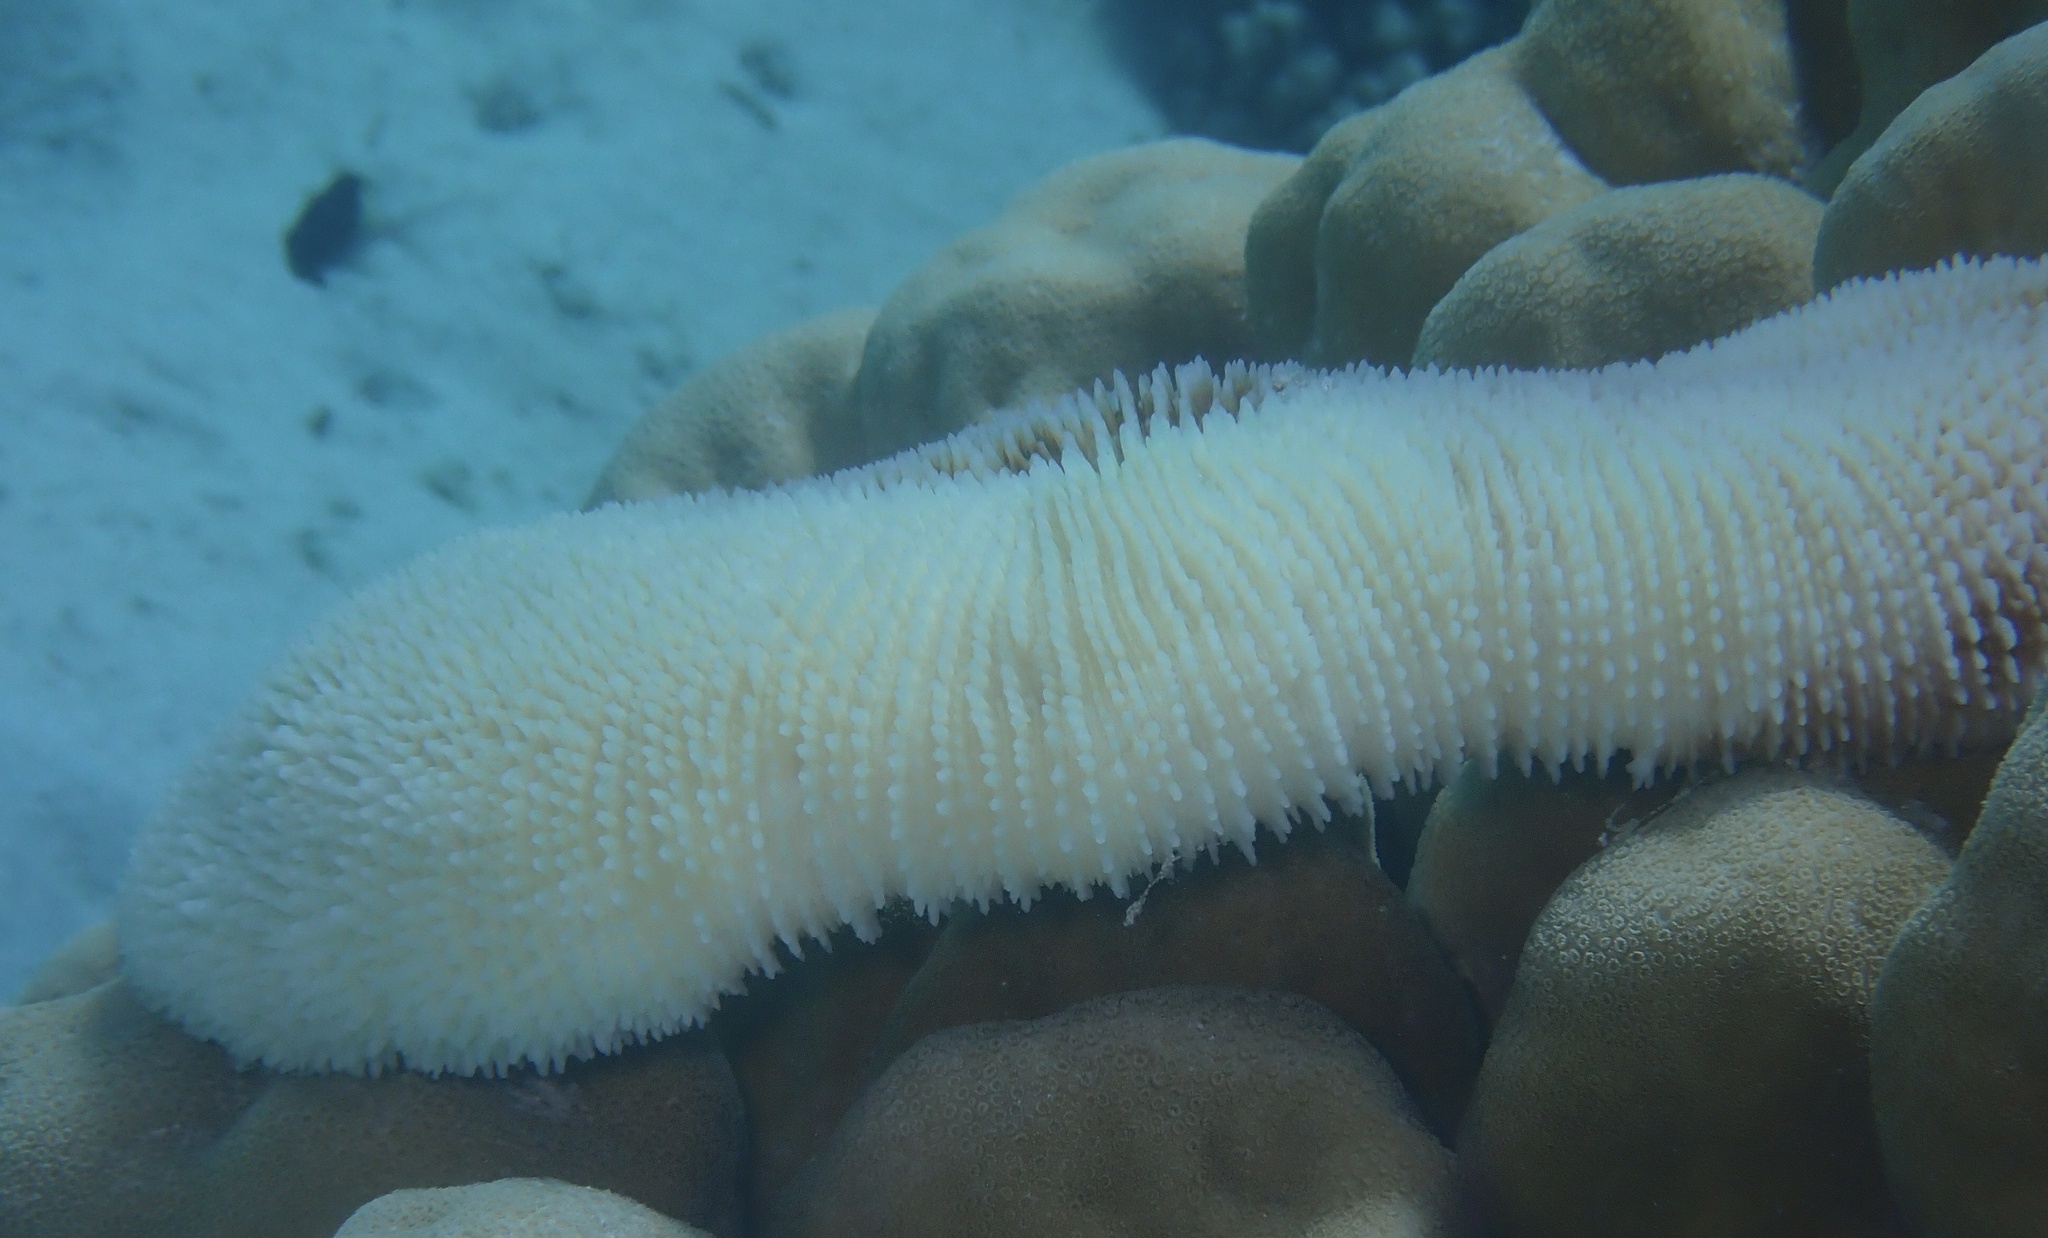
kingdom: Animalia
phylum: Cnidaria
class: Anthozoa
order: Scleractinia
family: Fungiidae
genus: Ctenactis
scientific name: Ctenactis crassa
